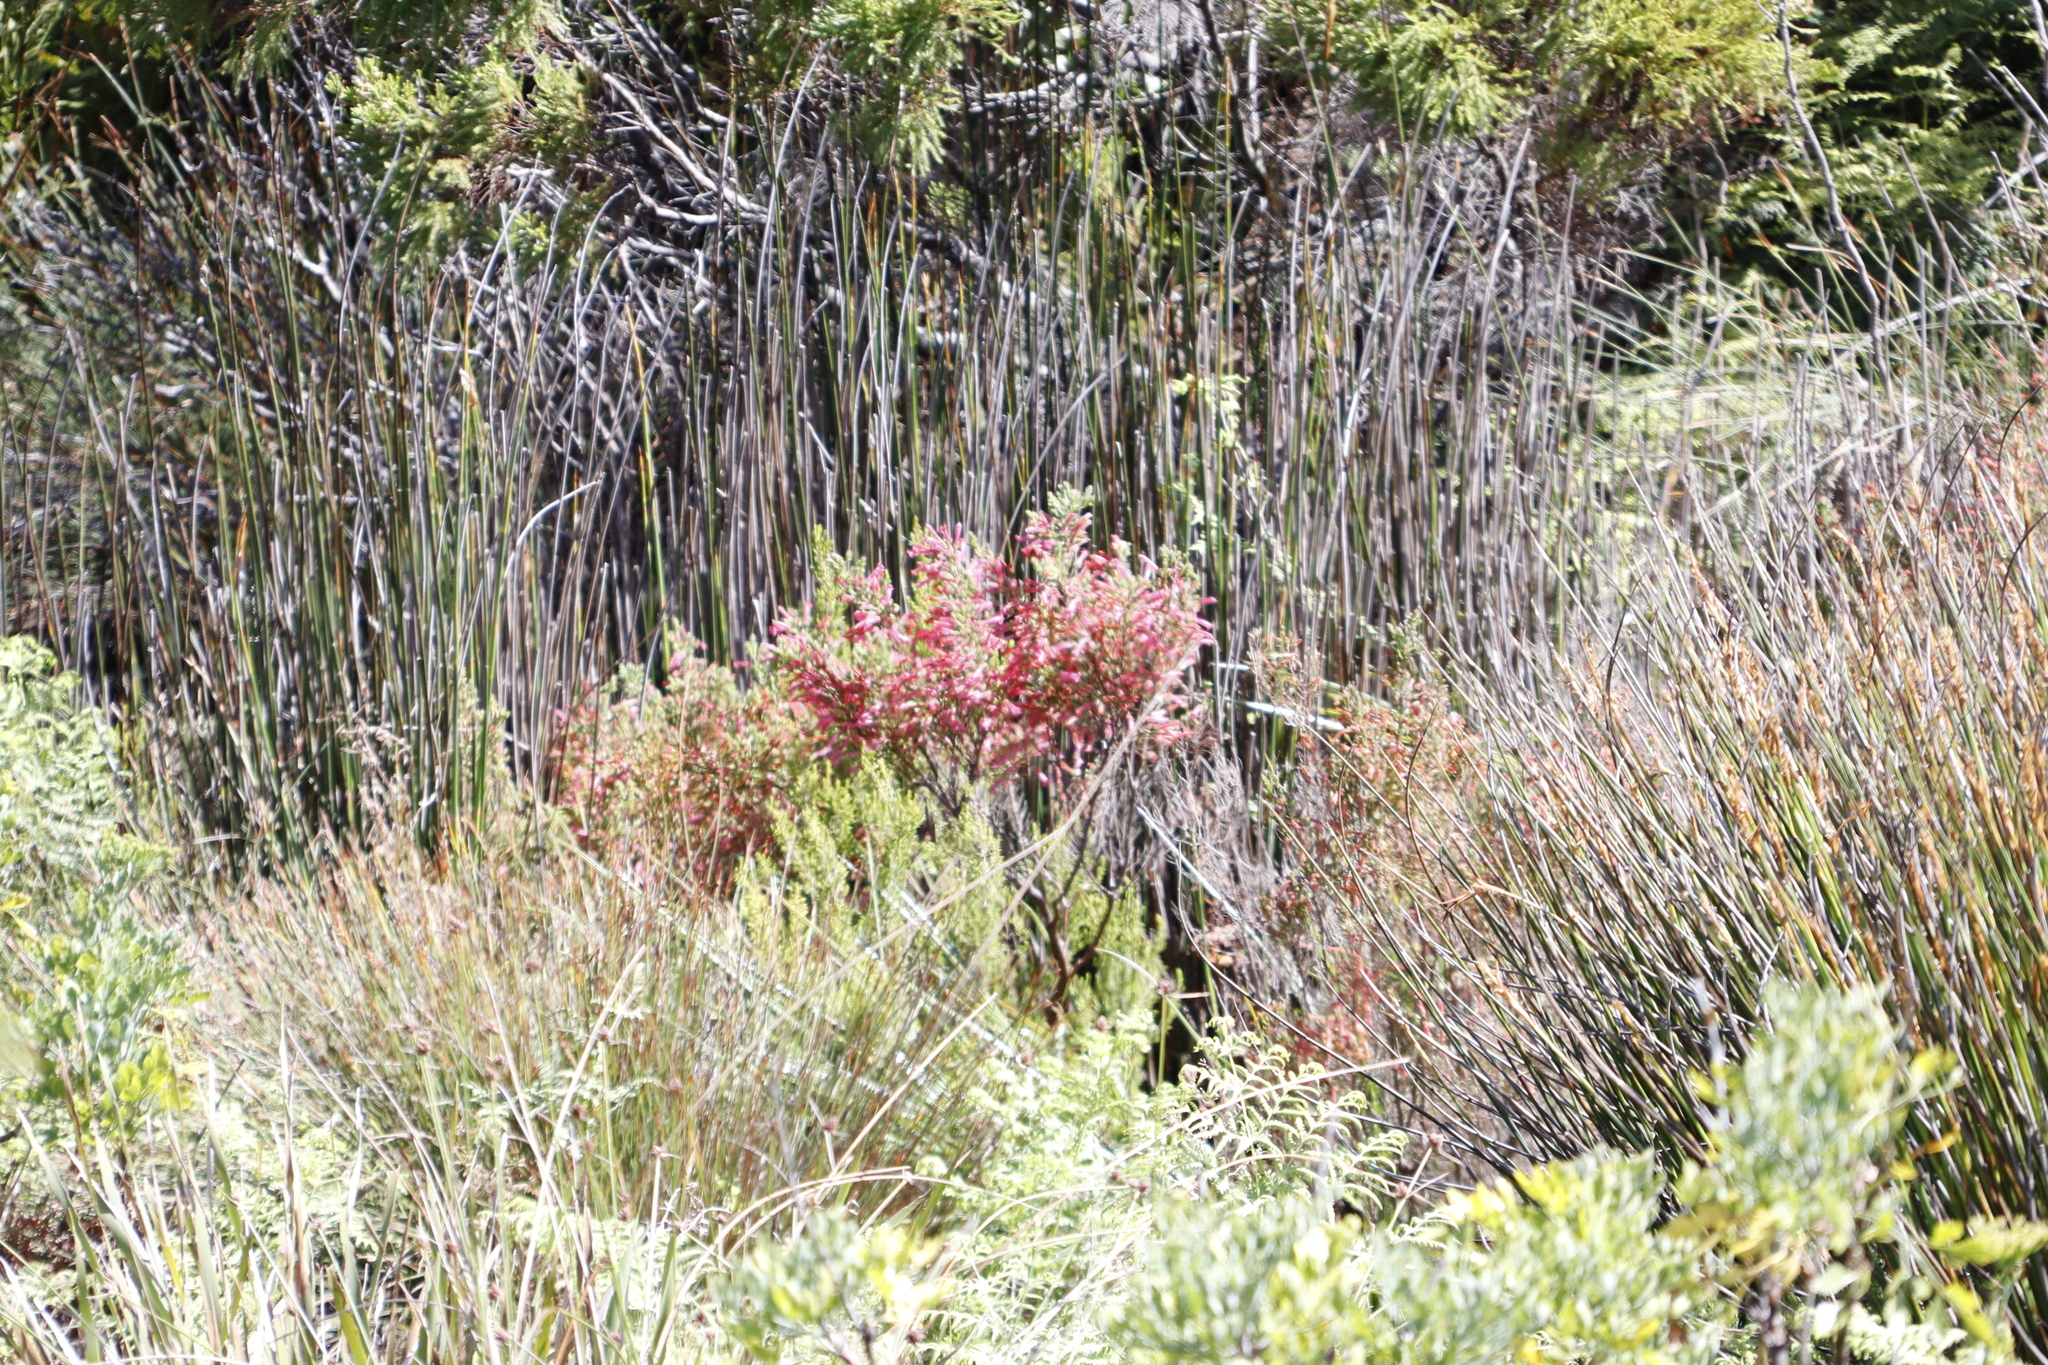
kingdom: Plantae
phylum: Tracheophyta
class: Magnoliopsida
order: Ericales
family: Ericaceae
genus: Erica
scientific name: Erica curviflora
